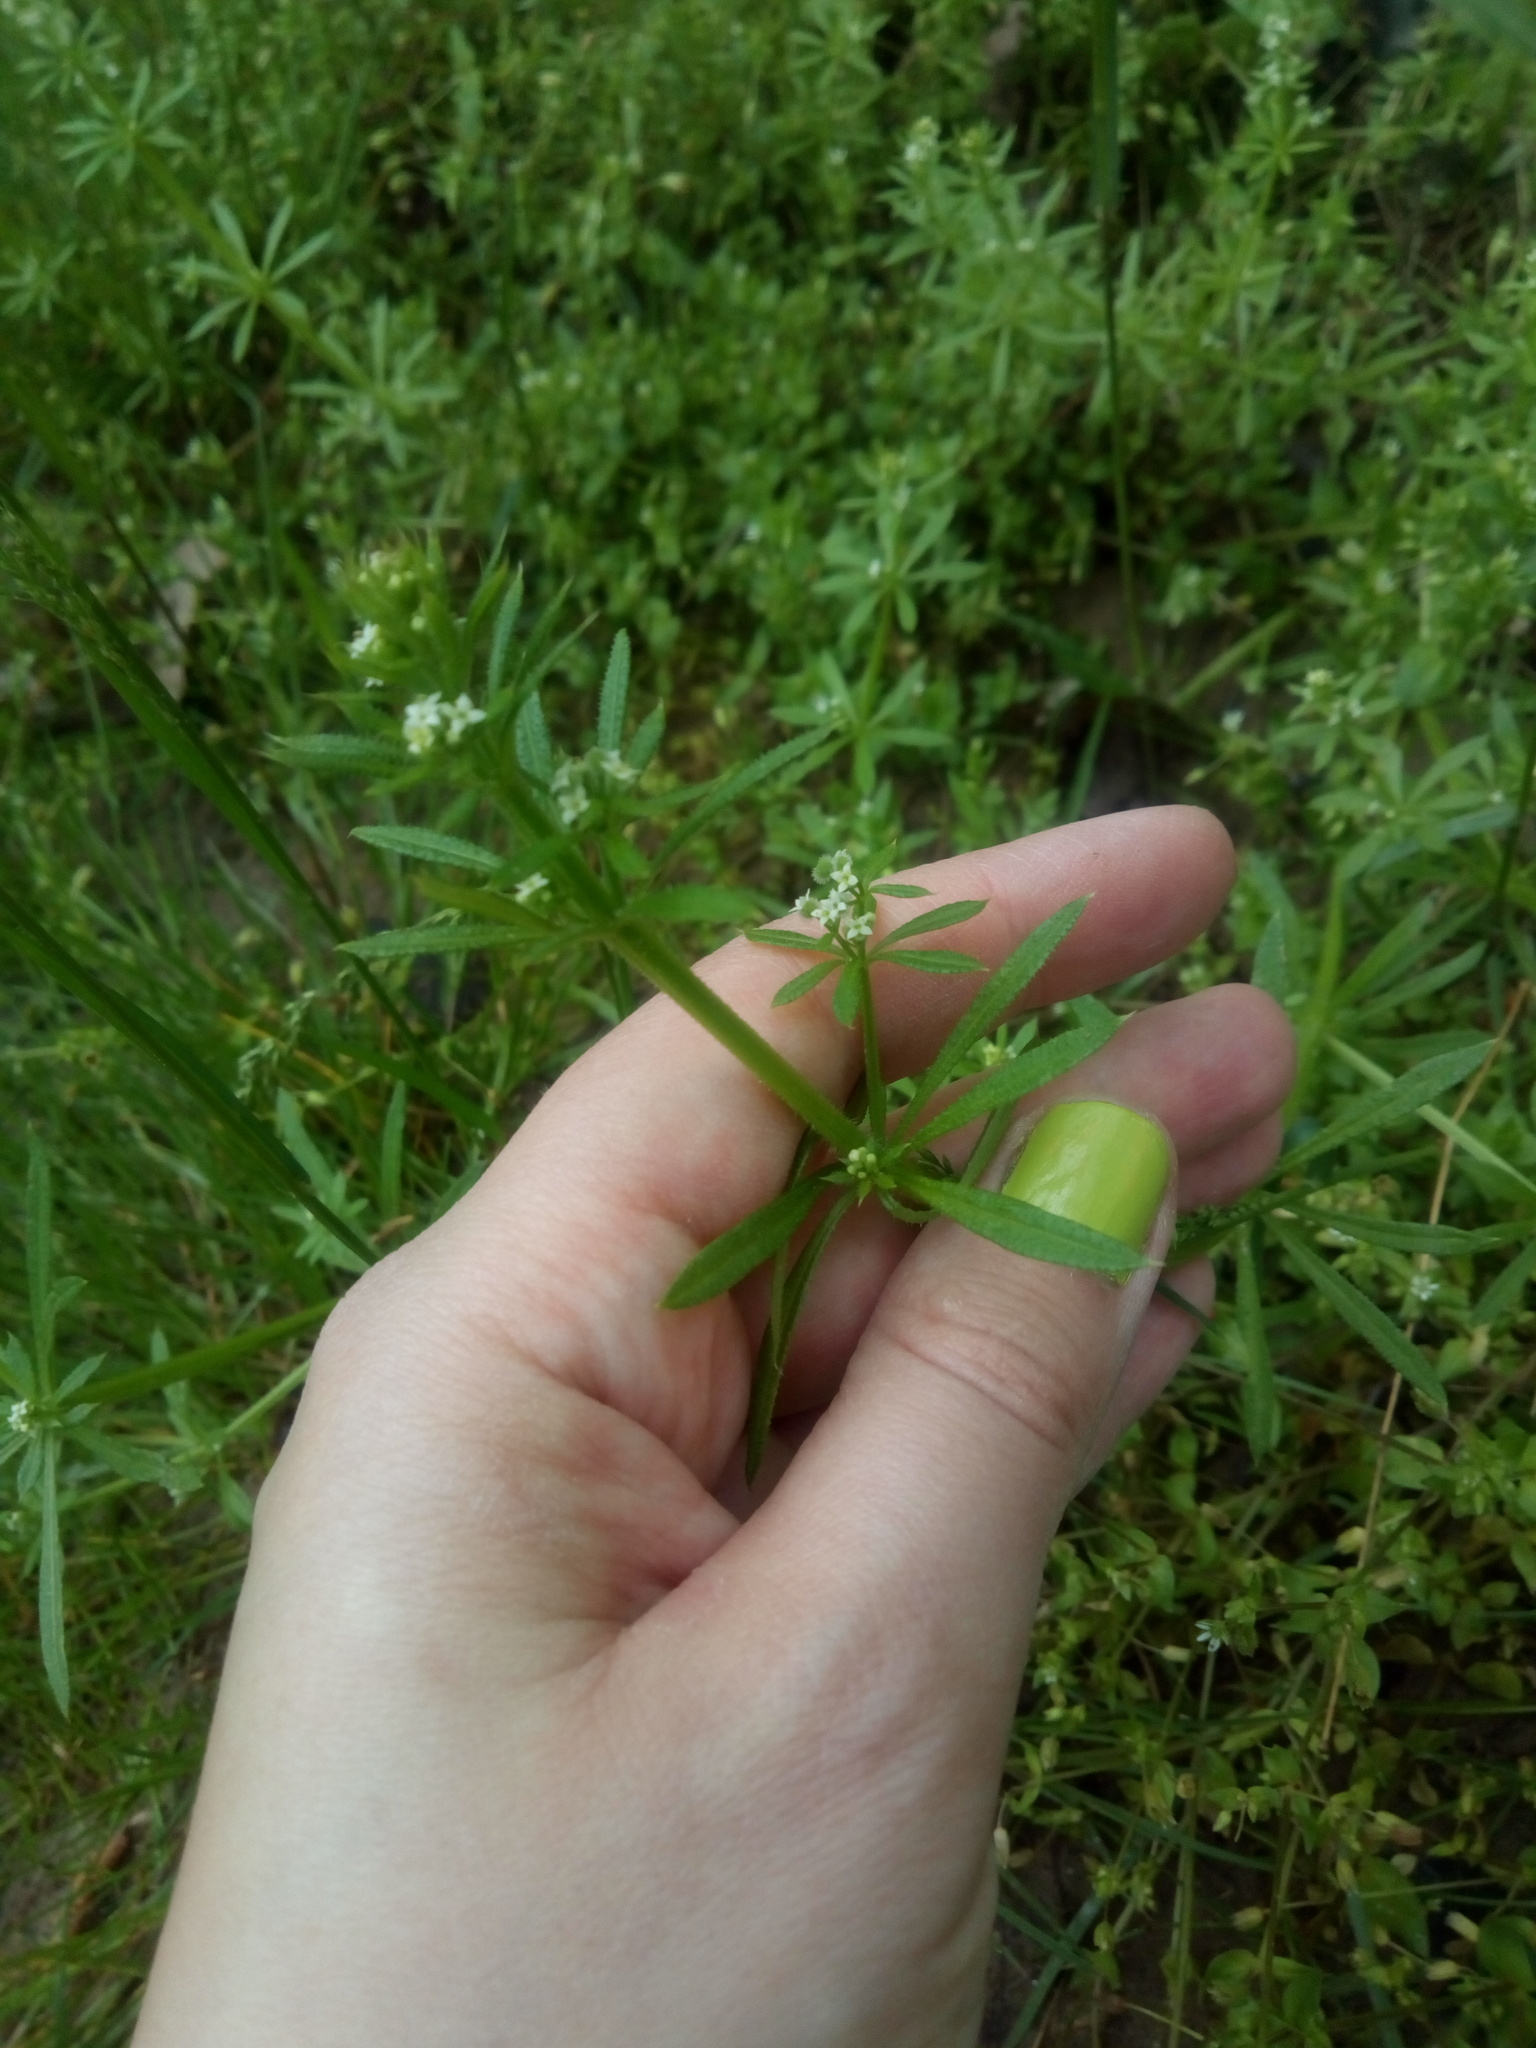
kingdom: Plantae
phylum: Tracheophyta
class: Magnoliopsida
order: Gentianales
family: Rubiaceae
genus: Galium
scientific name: Galium aparine
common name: Cleavers
